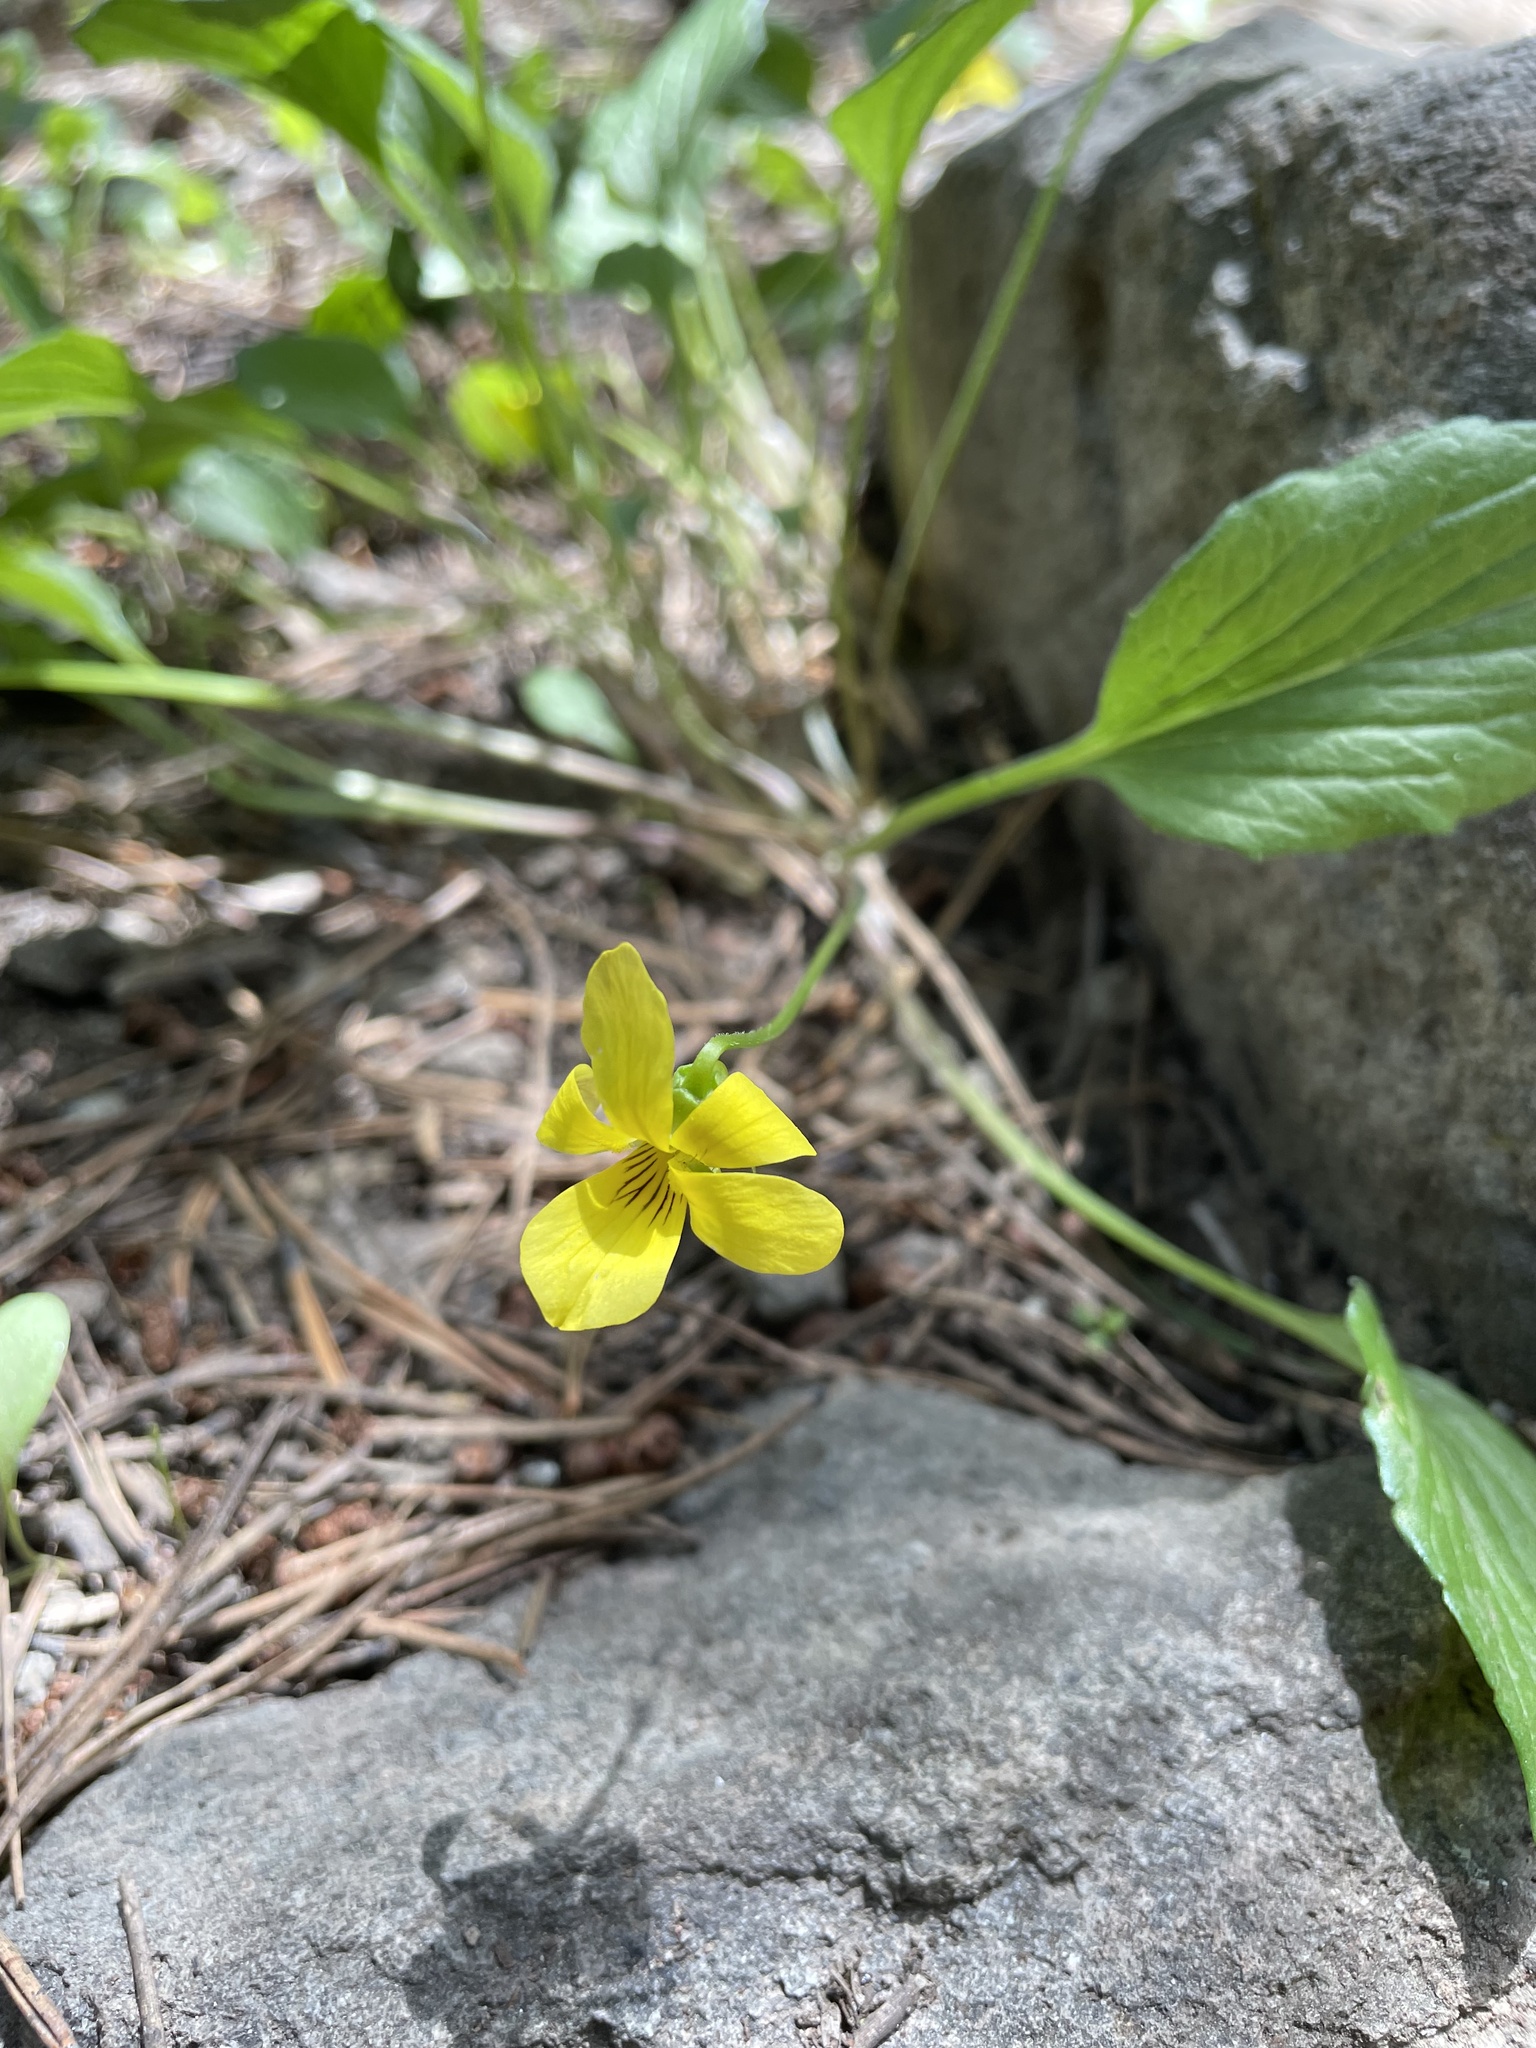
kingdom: Plantae
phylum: Tracheophyta
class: Magnoliopsida
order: Malpighiales
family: Violaceae
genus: Viola
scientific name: Viola praemorsa
